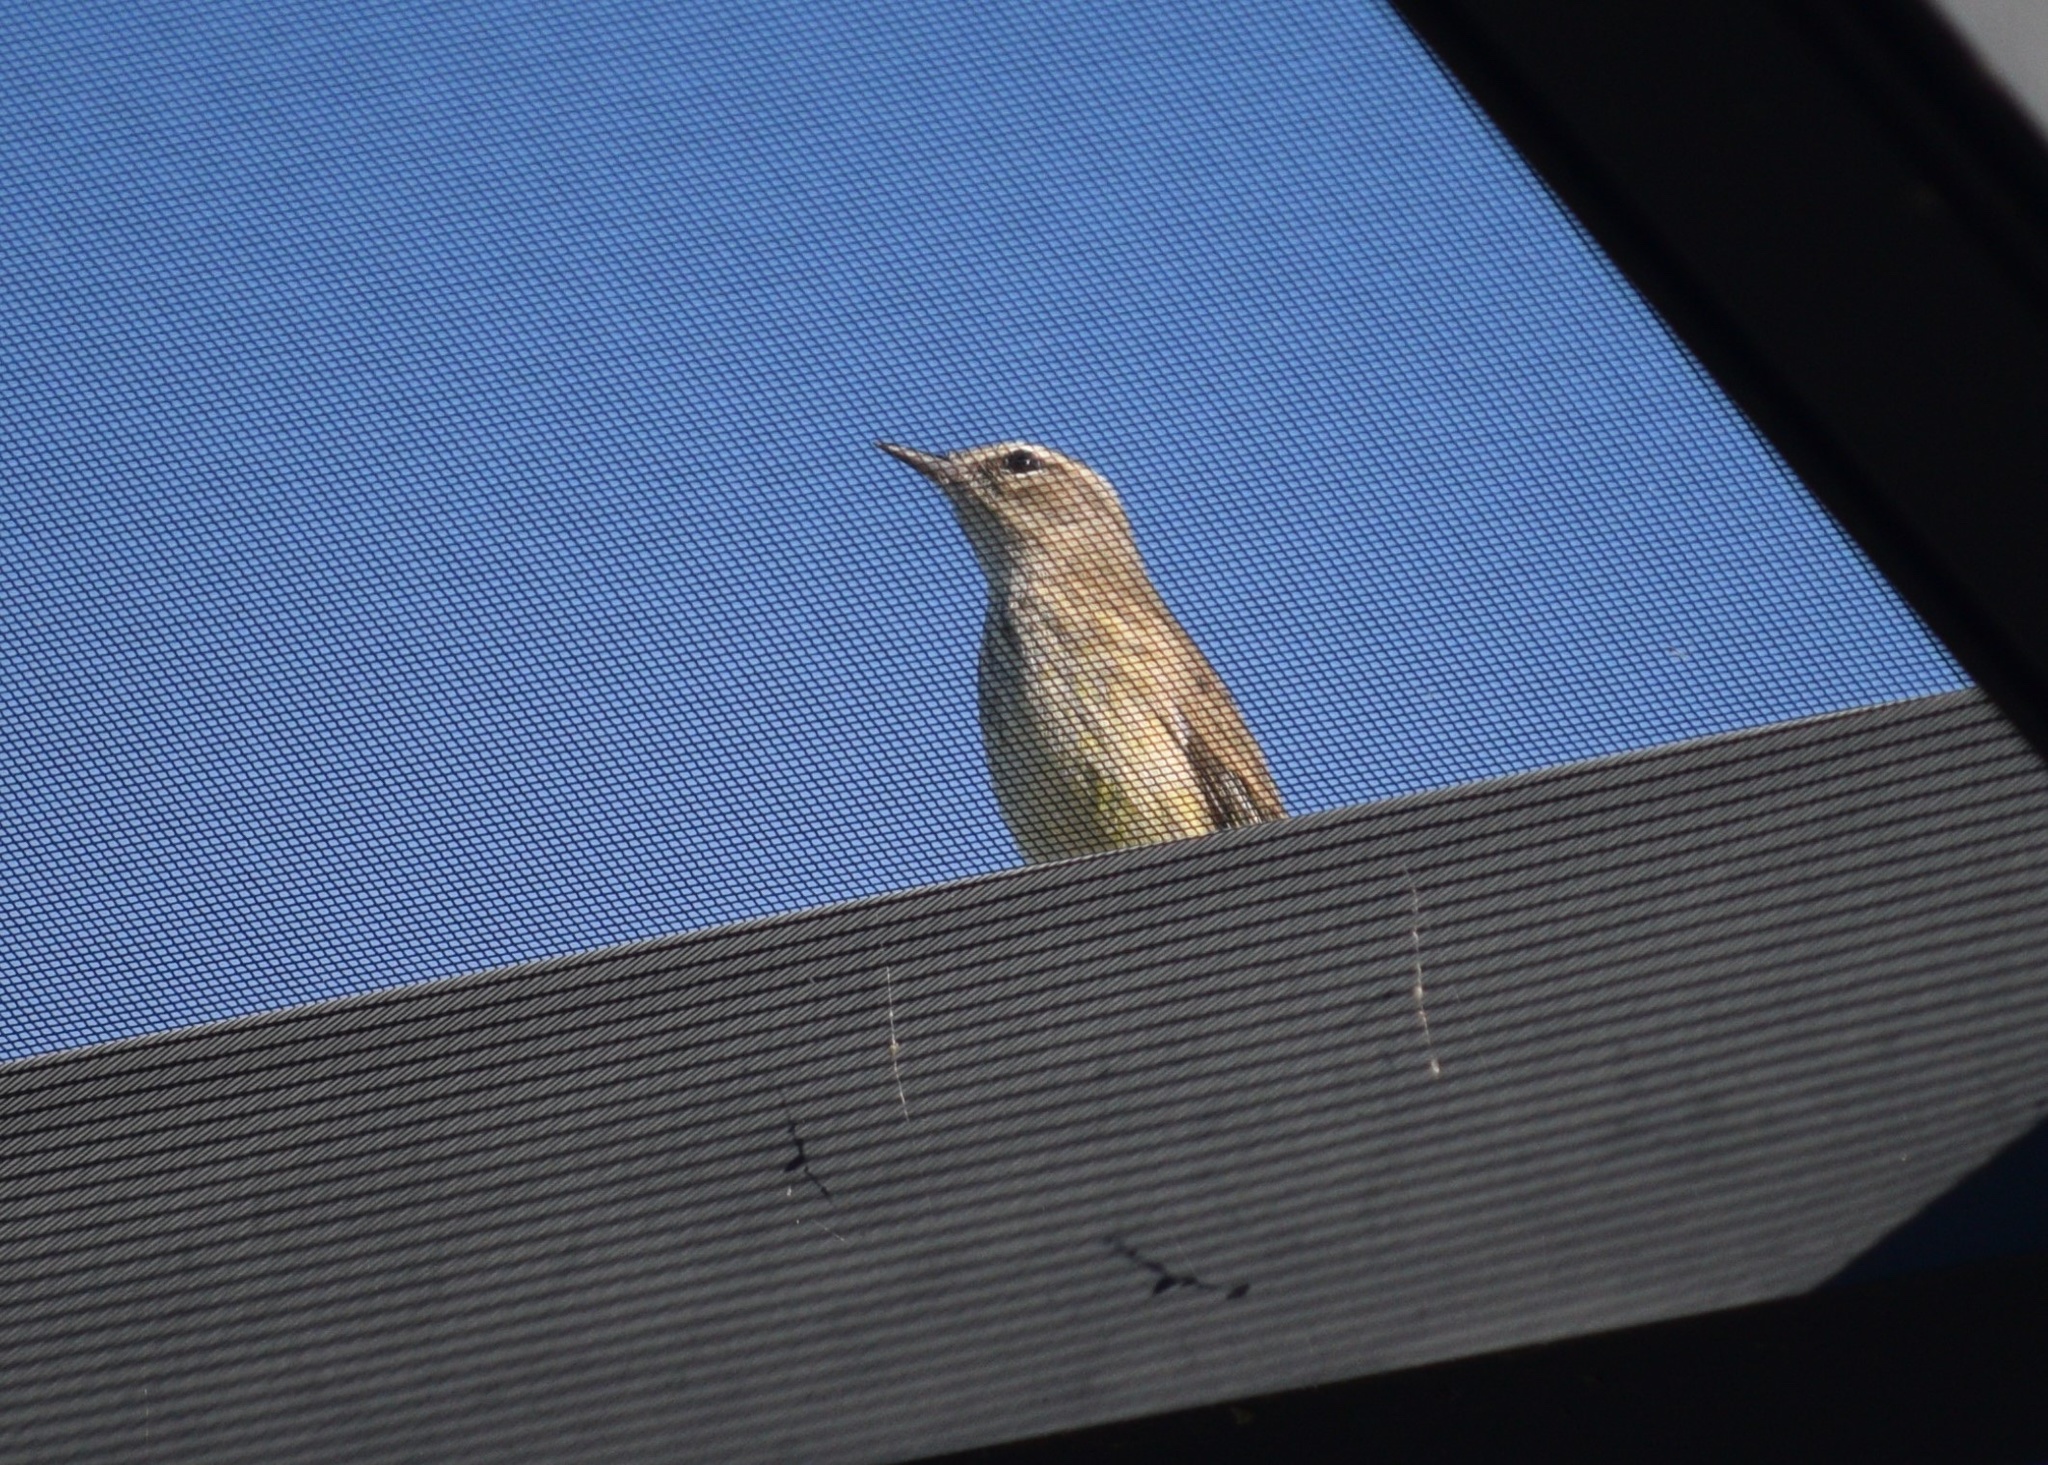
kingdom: Animalia
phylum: Chordata
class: Aves
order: Passeriformes
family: Parulidae
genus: Setophaga
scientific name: Setophaga palmarum
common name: Palm warbler
